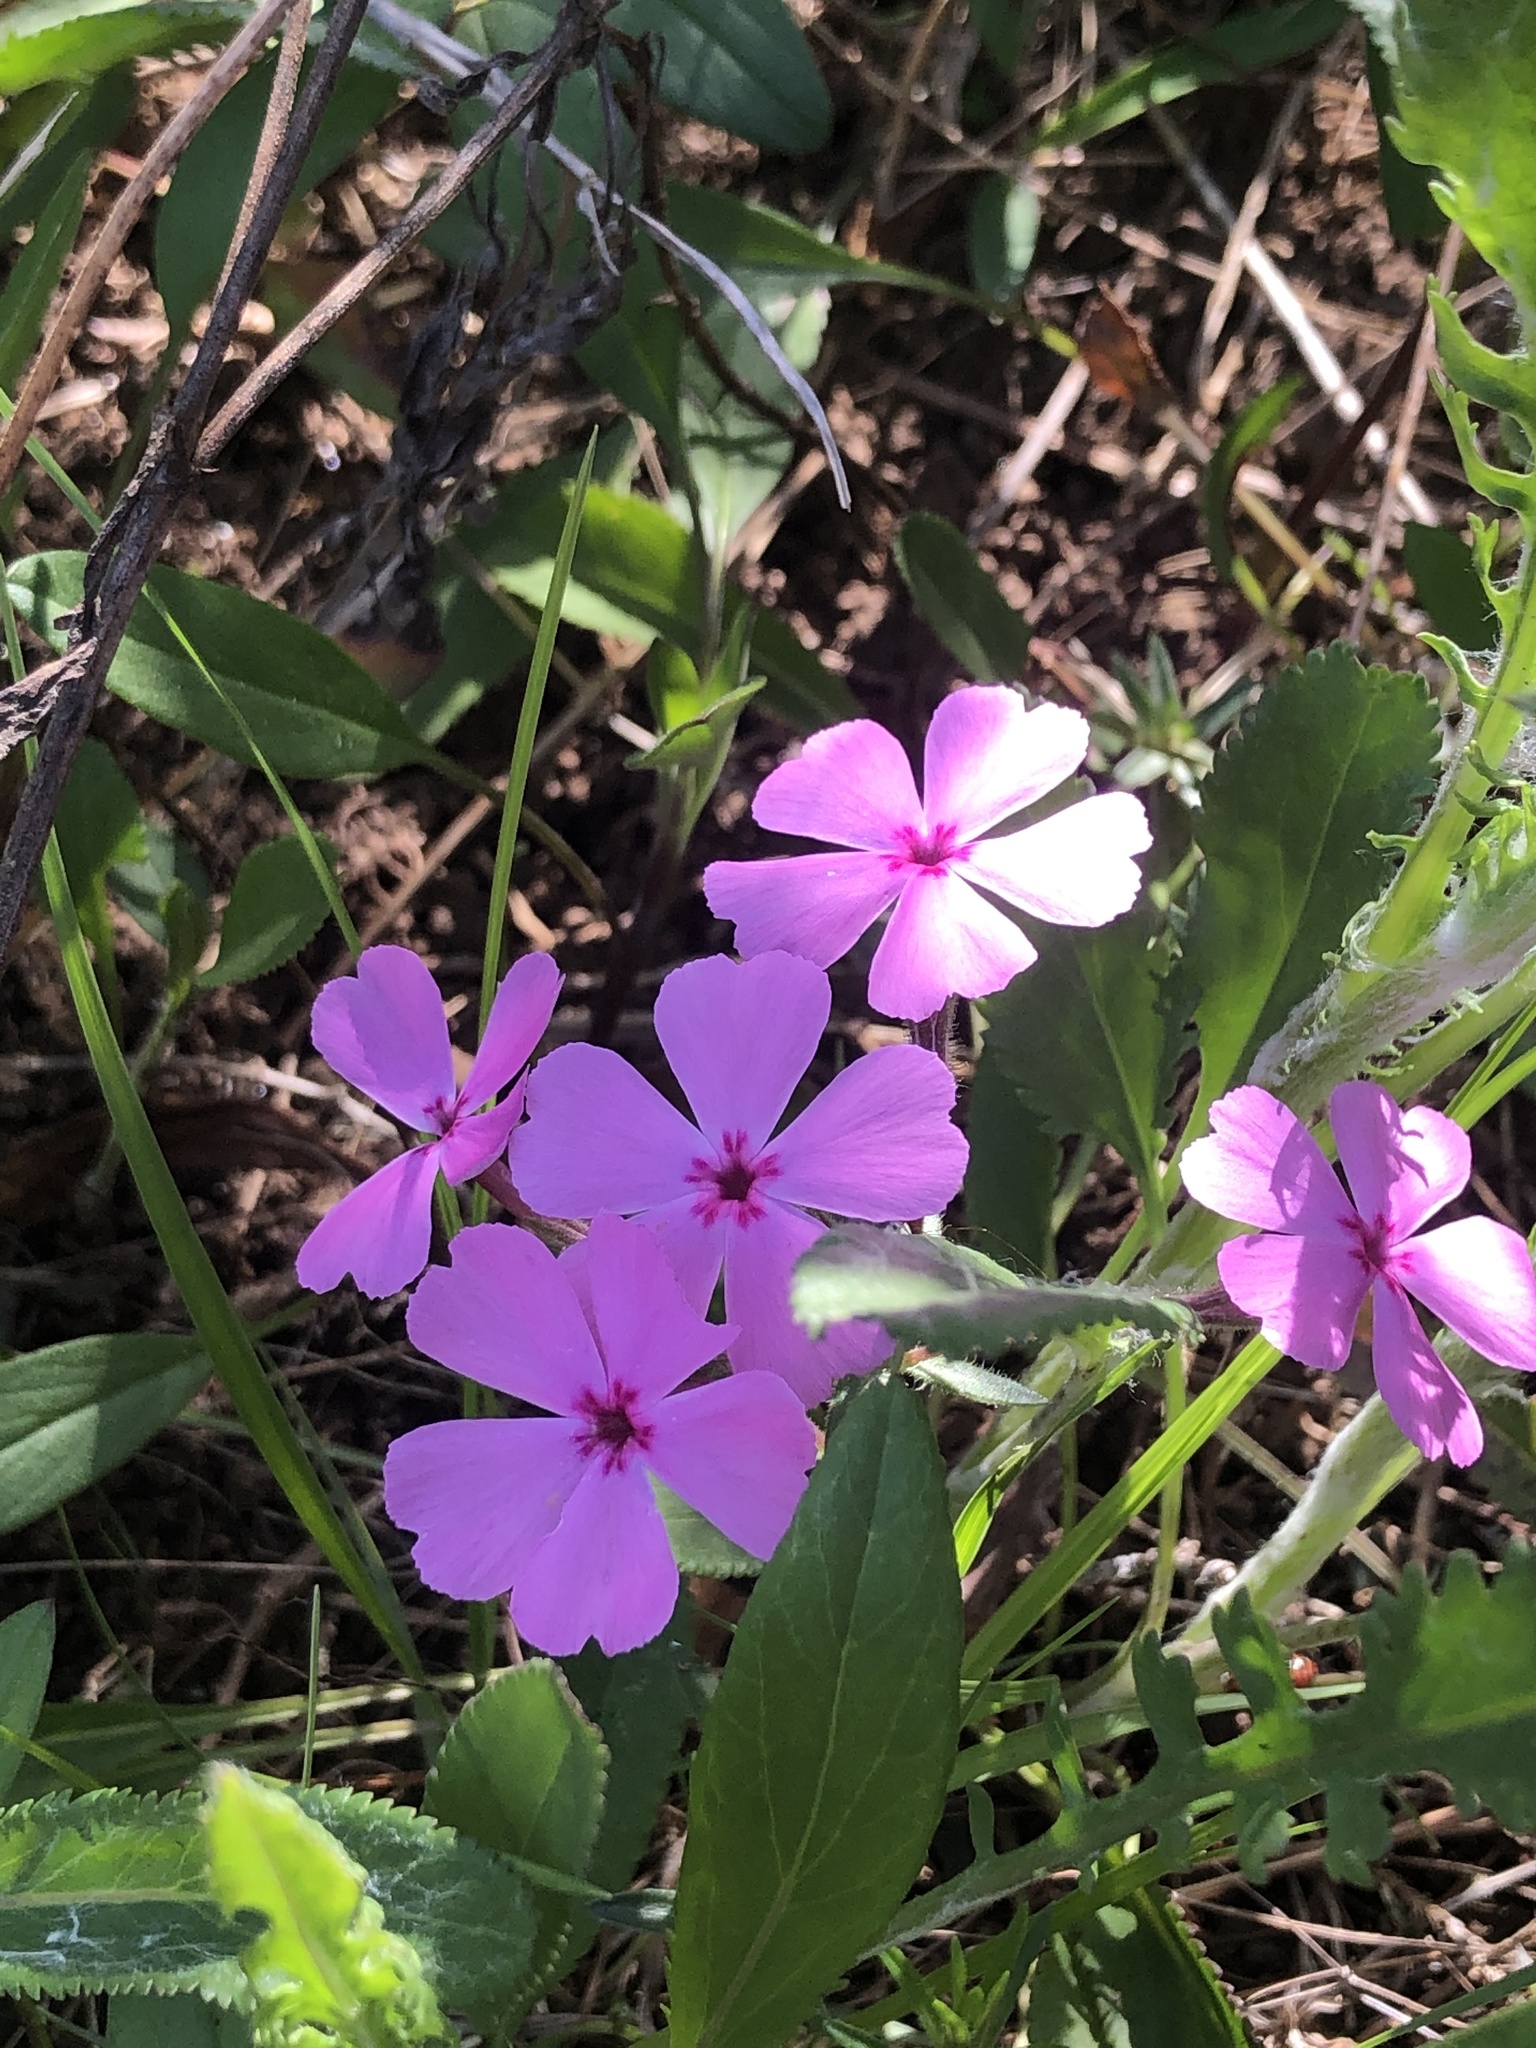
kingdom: Plantae
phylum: Tracheophyta
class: Magnoliopsida
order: Ericales
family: Polemoniaceae
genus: Phlox
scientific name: Phlox nivalis
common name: Trailing phlox
